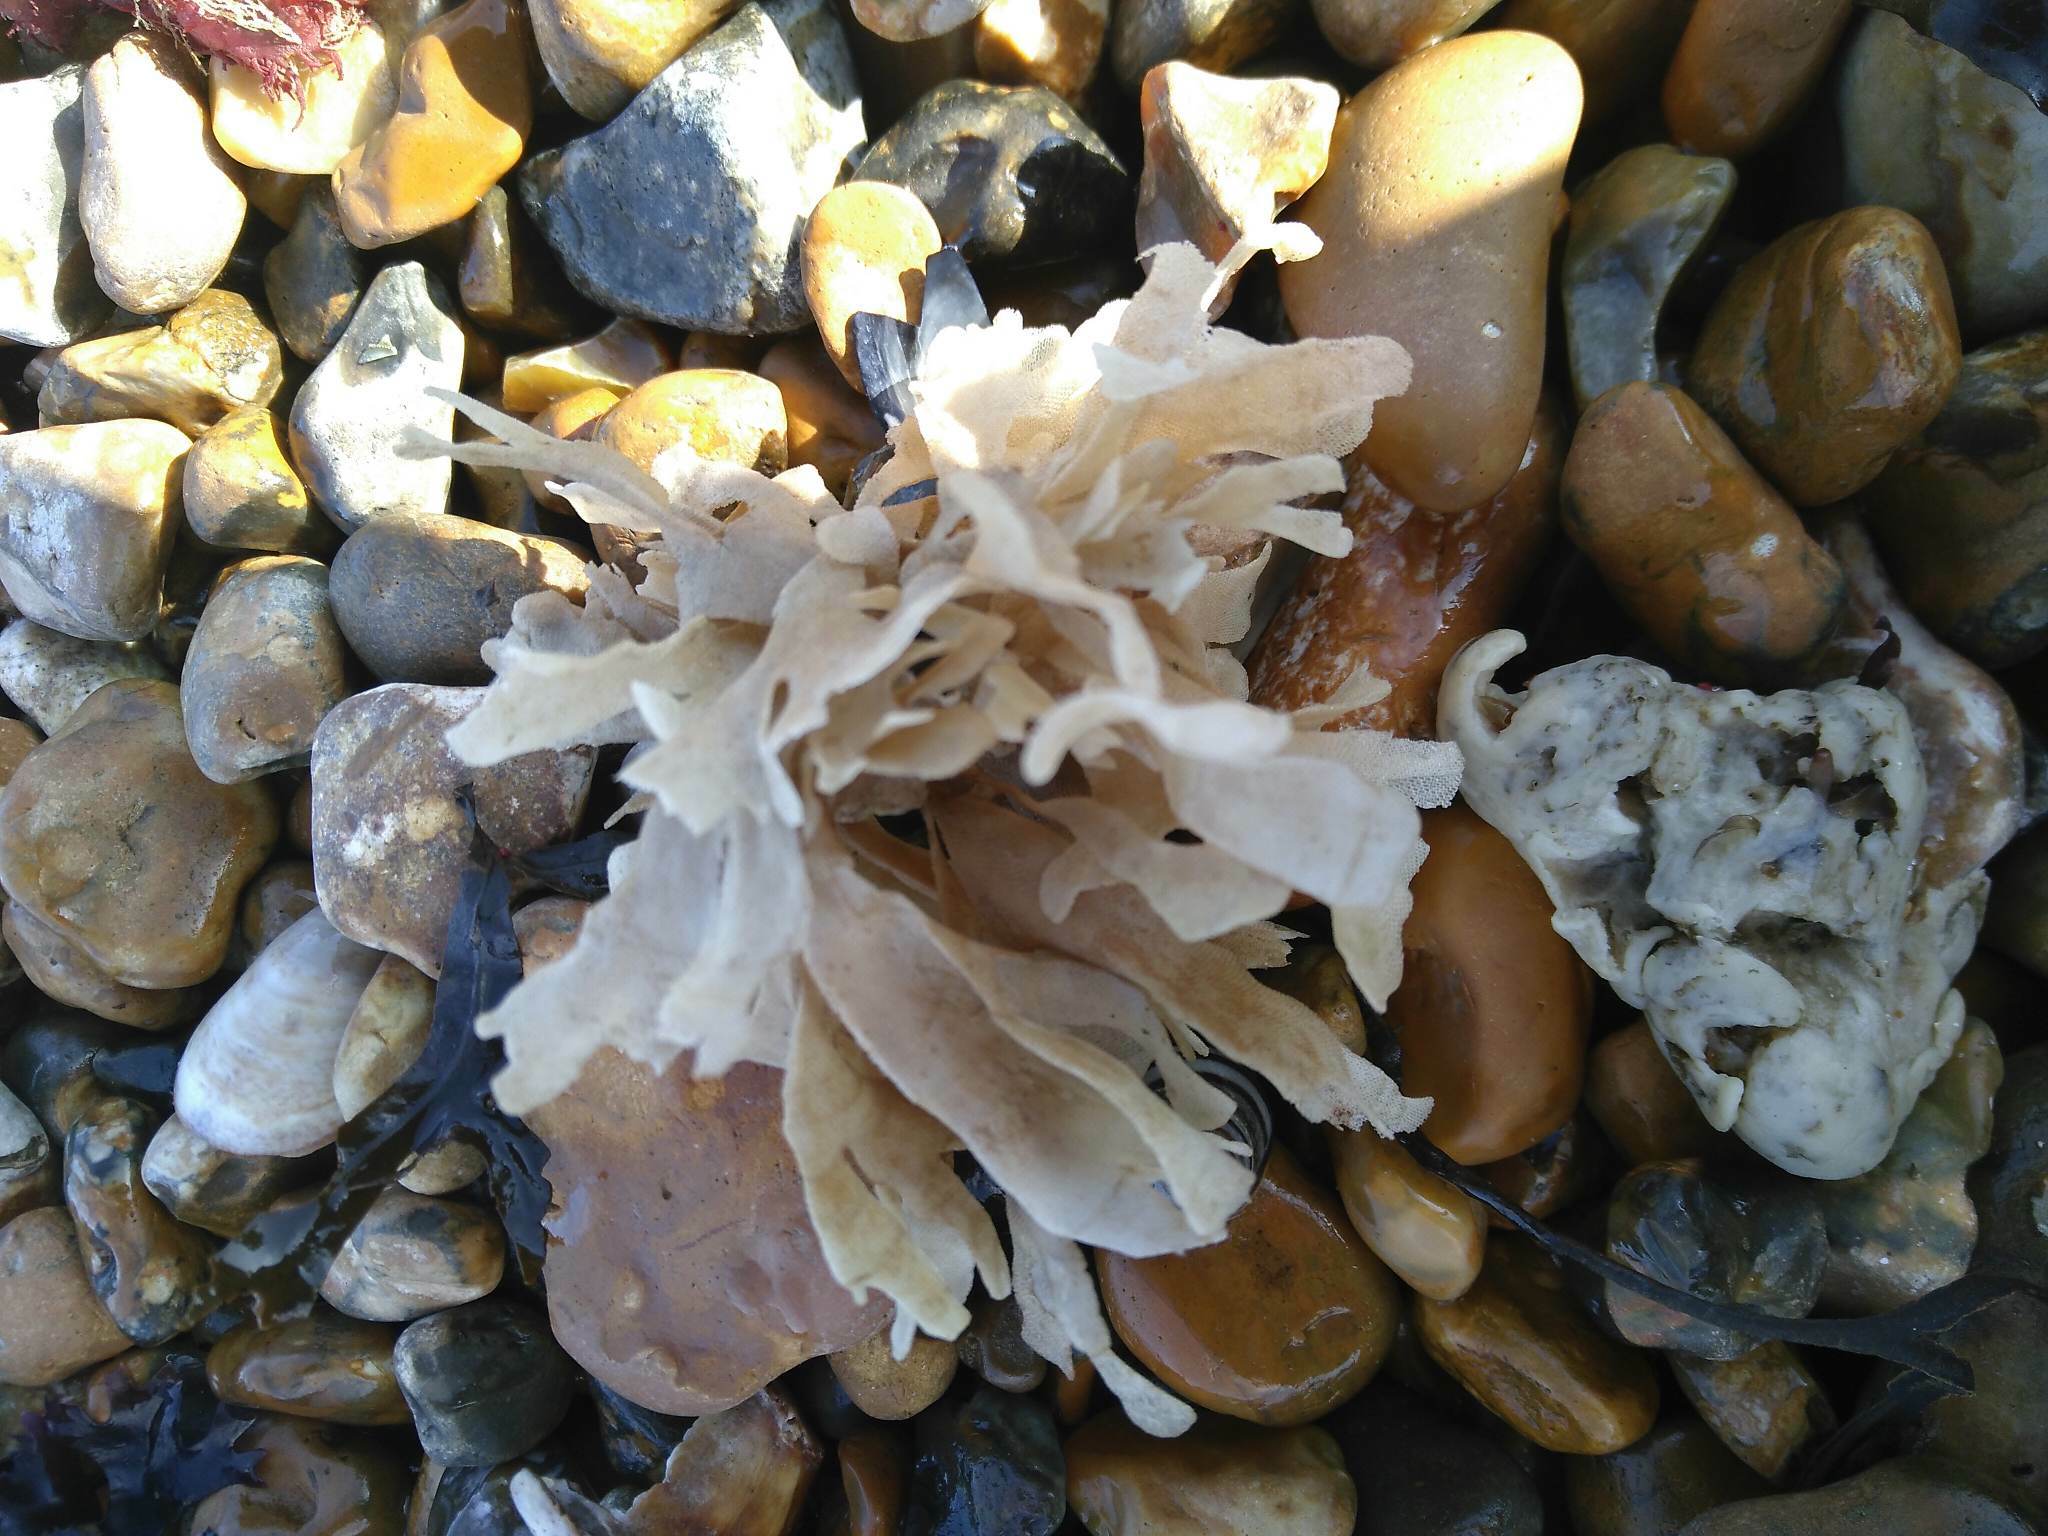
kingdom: Animalia
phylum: Bryozoa
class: Gymnolaemata
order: Cheilostomatida
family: Flustridae
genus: Flustra
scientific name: Flustra foliacea
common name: Hornwrack
